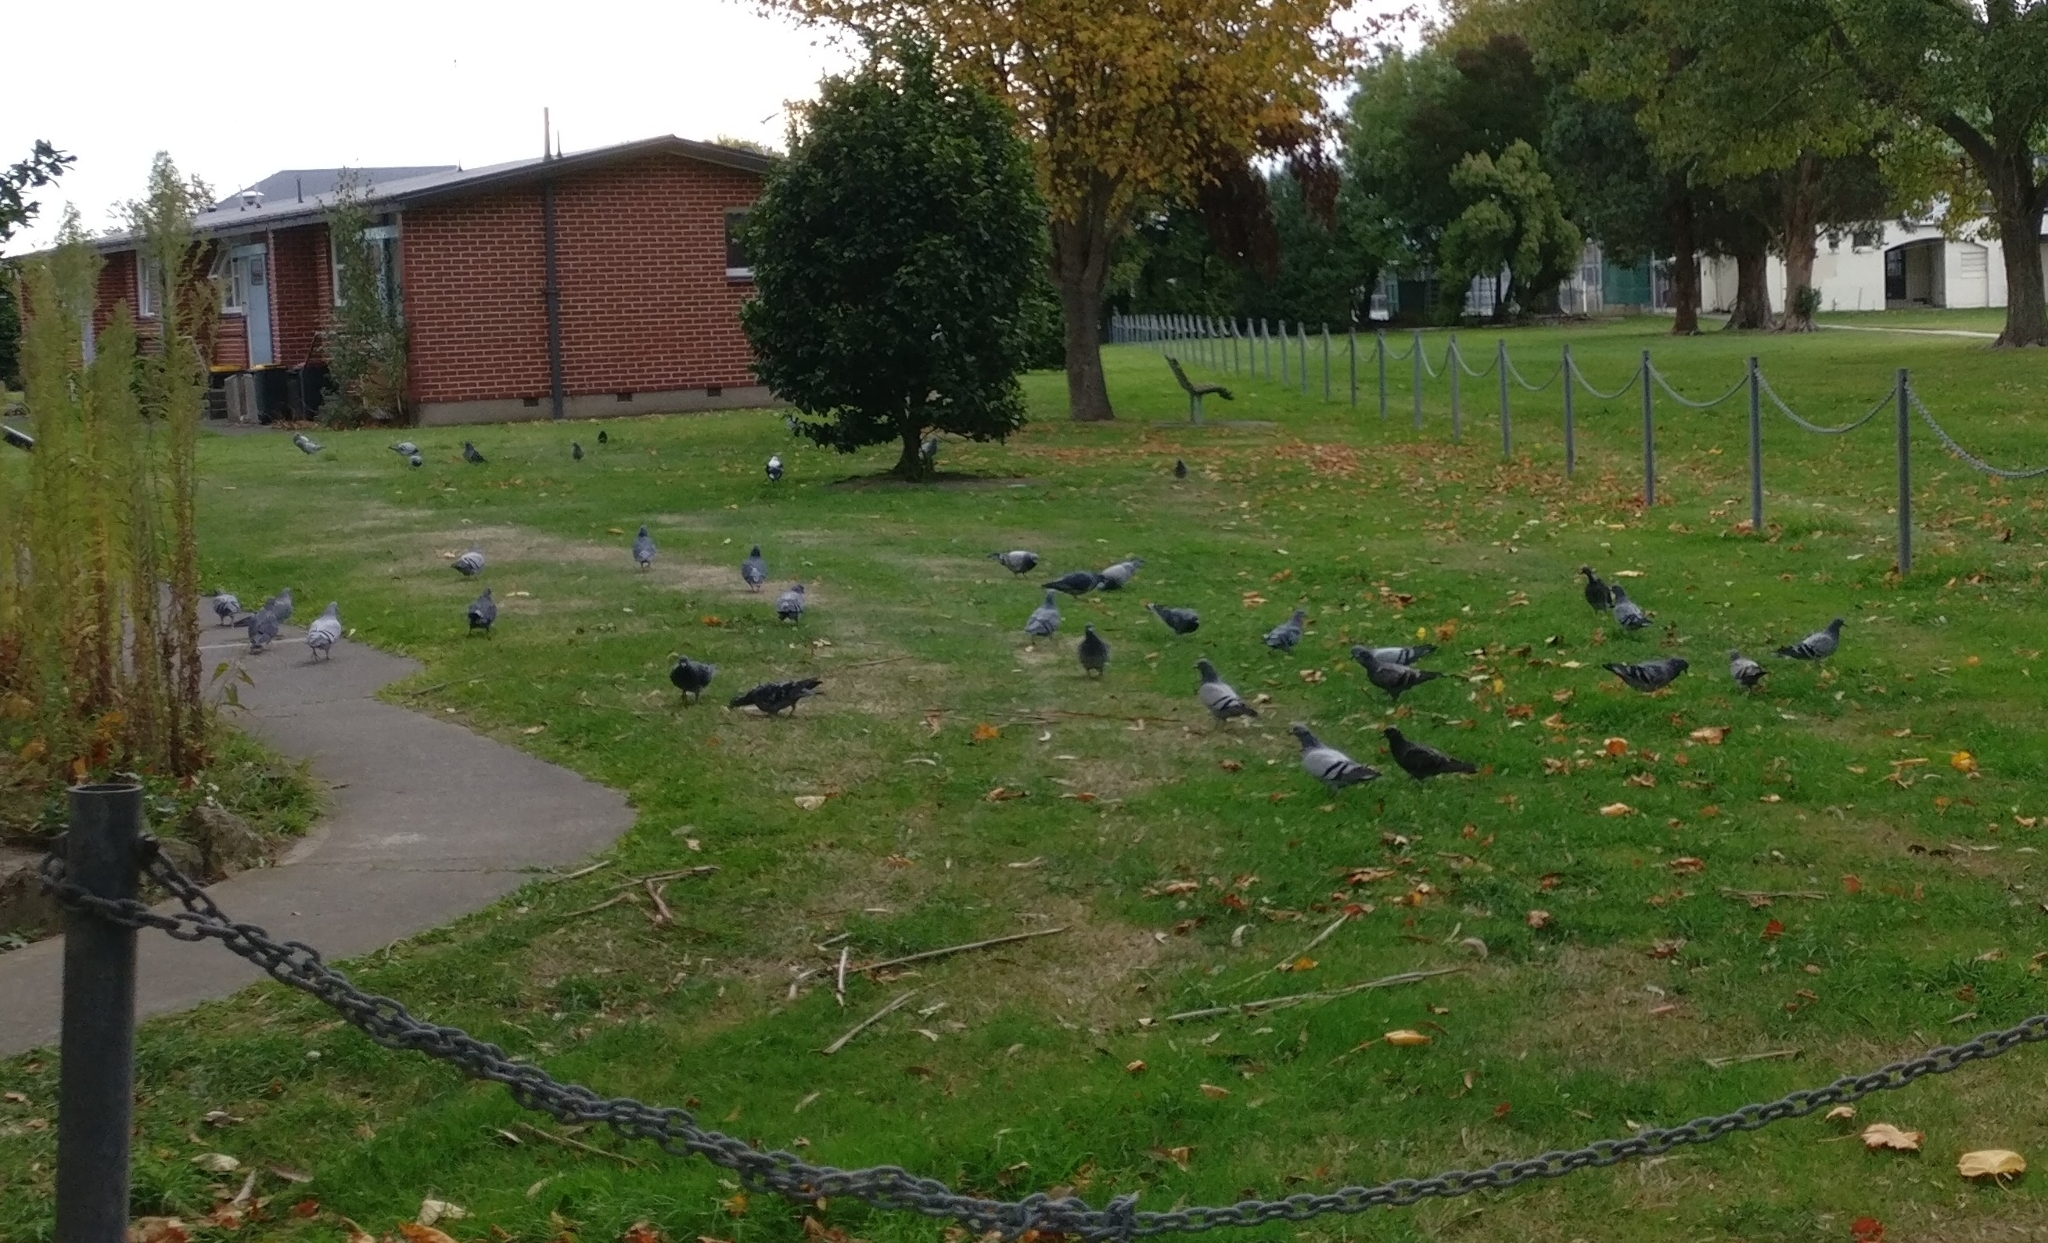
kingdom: Animalia
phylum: Chordata
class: Aves
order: Columbiformes
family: Columbidae
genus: Columba
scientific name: Columba livia
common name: Rock pigeon
